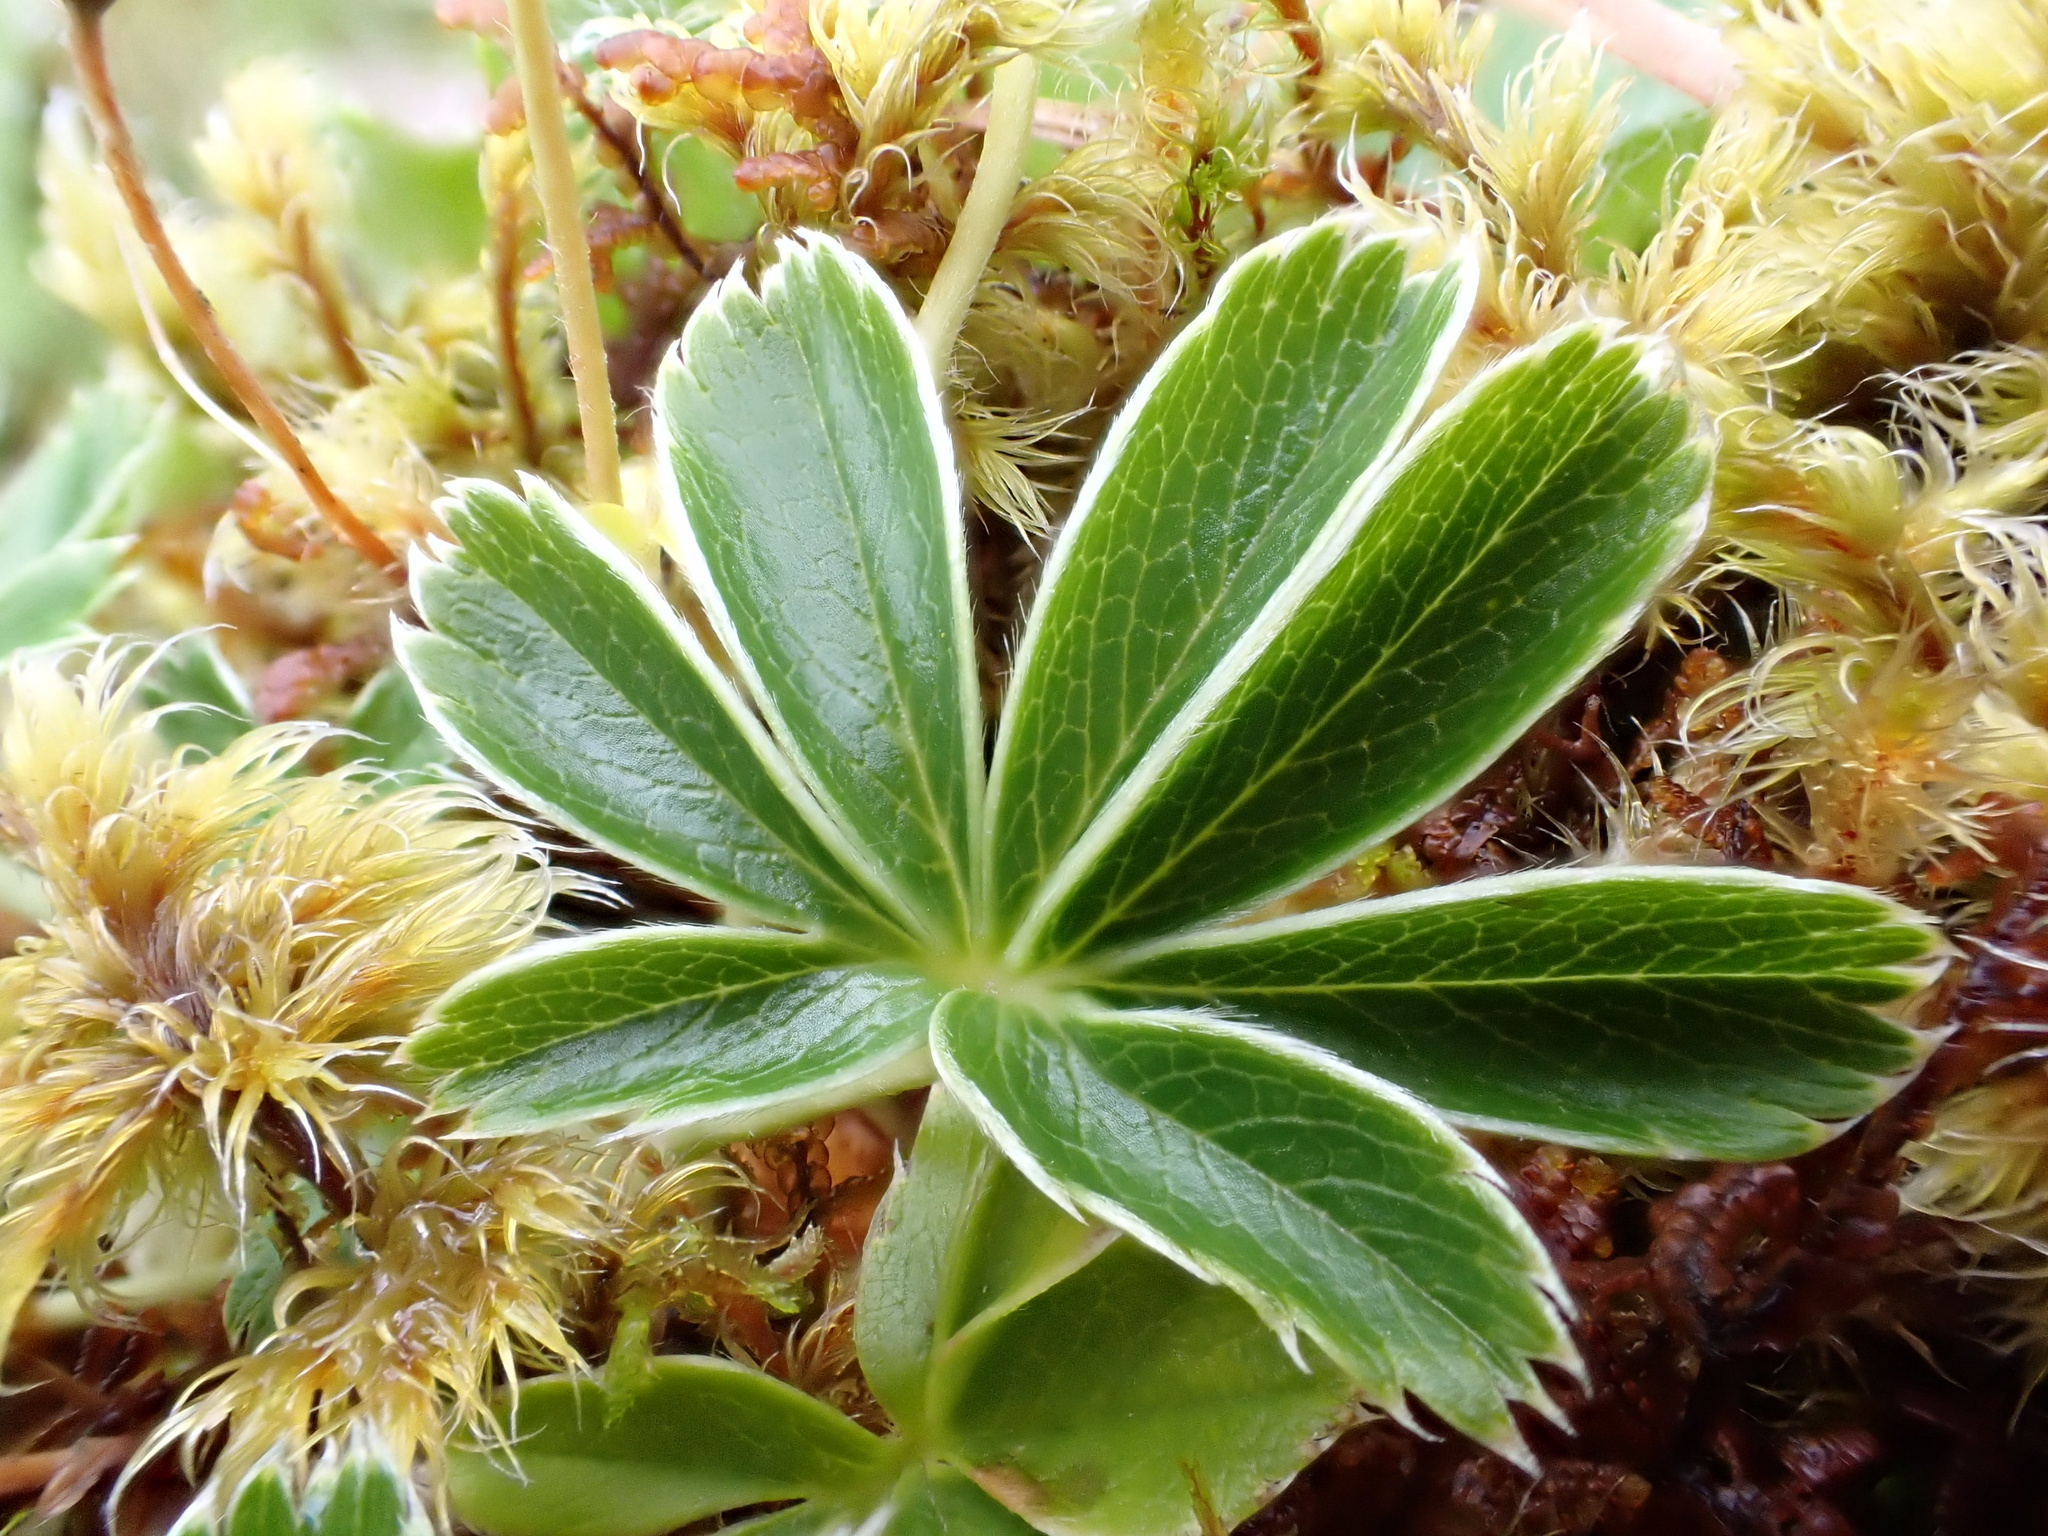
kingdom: Plantae
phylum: Tracheophyta
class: Magnoliopsida
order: Rosales
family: Rosaceae
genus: Alchemilla
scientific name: Alchemilla alpina
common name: Alpine lady's-mantle
